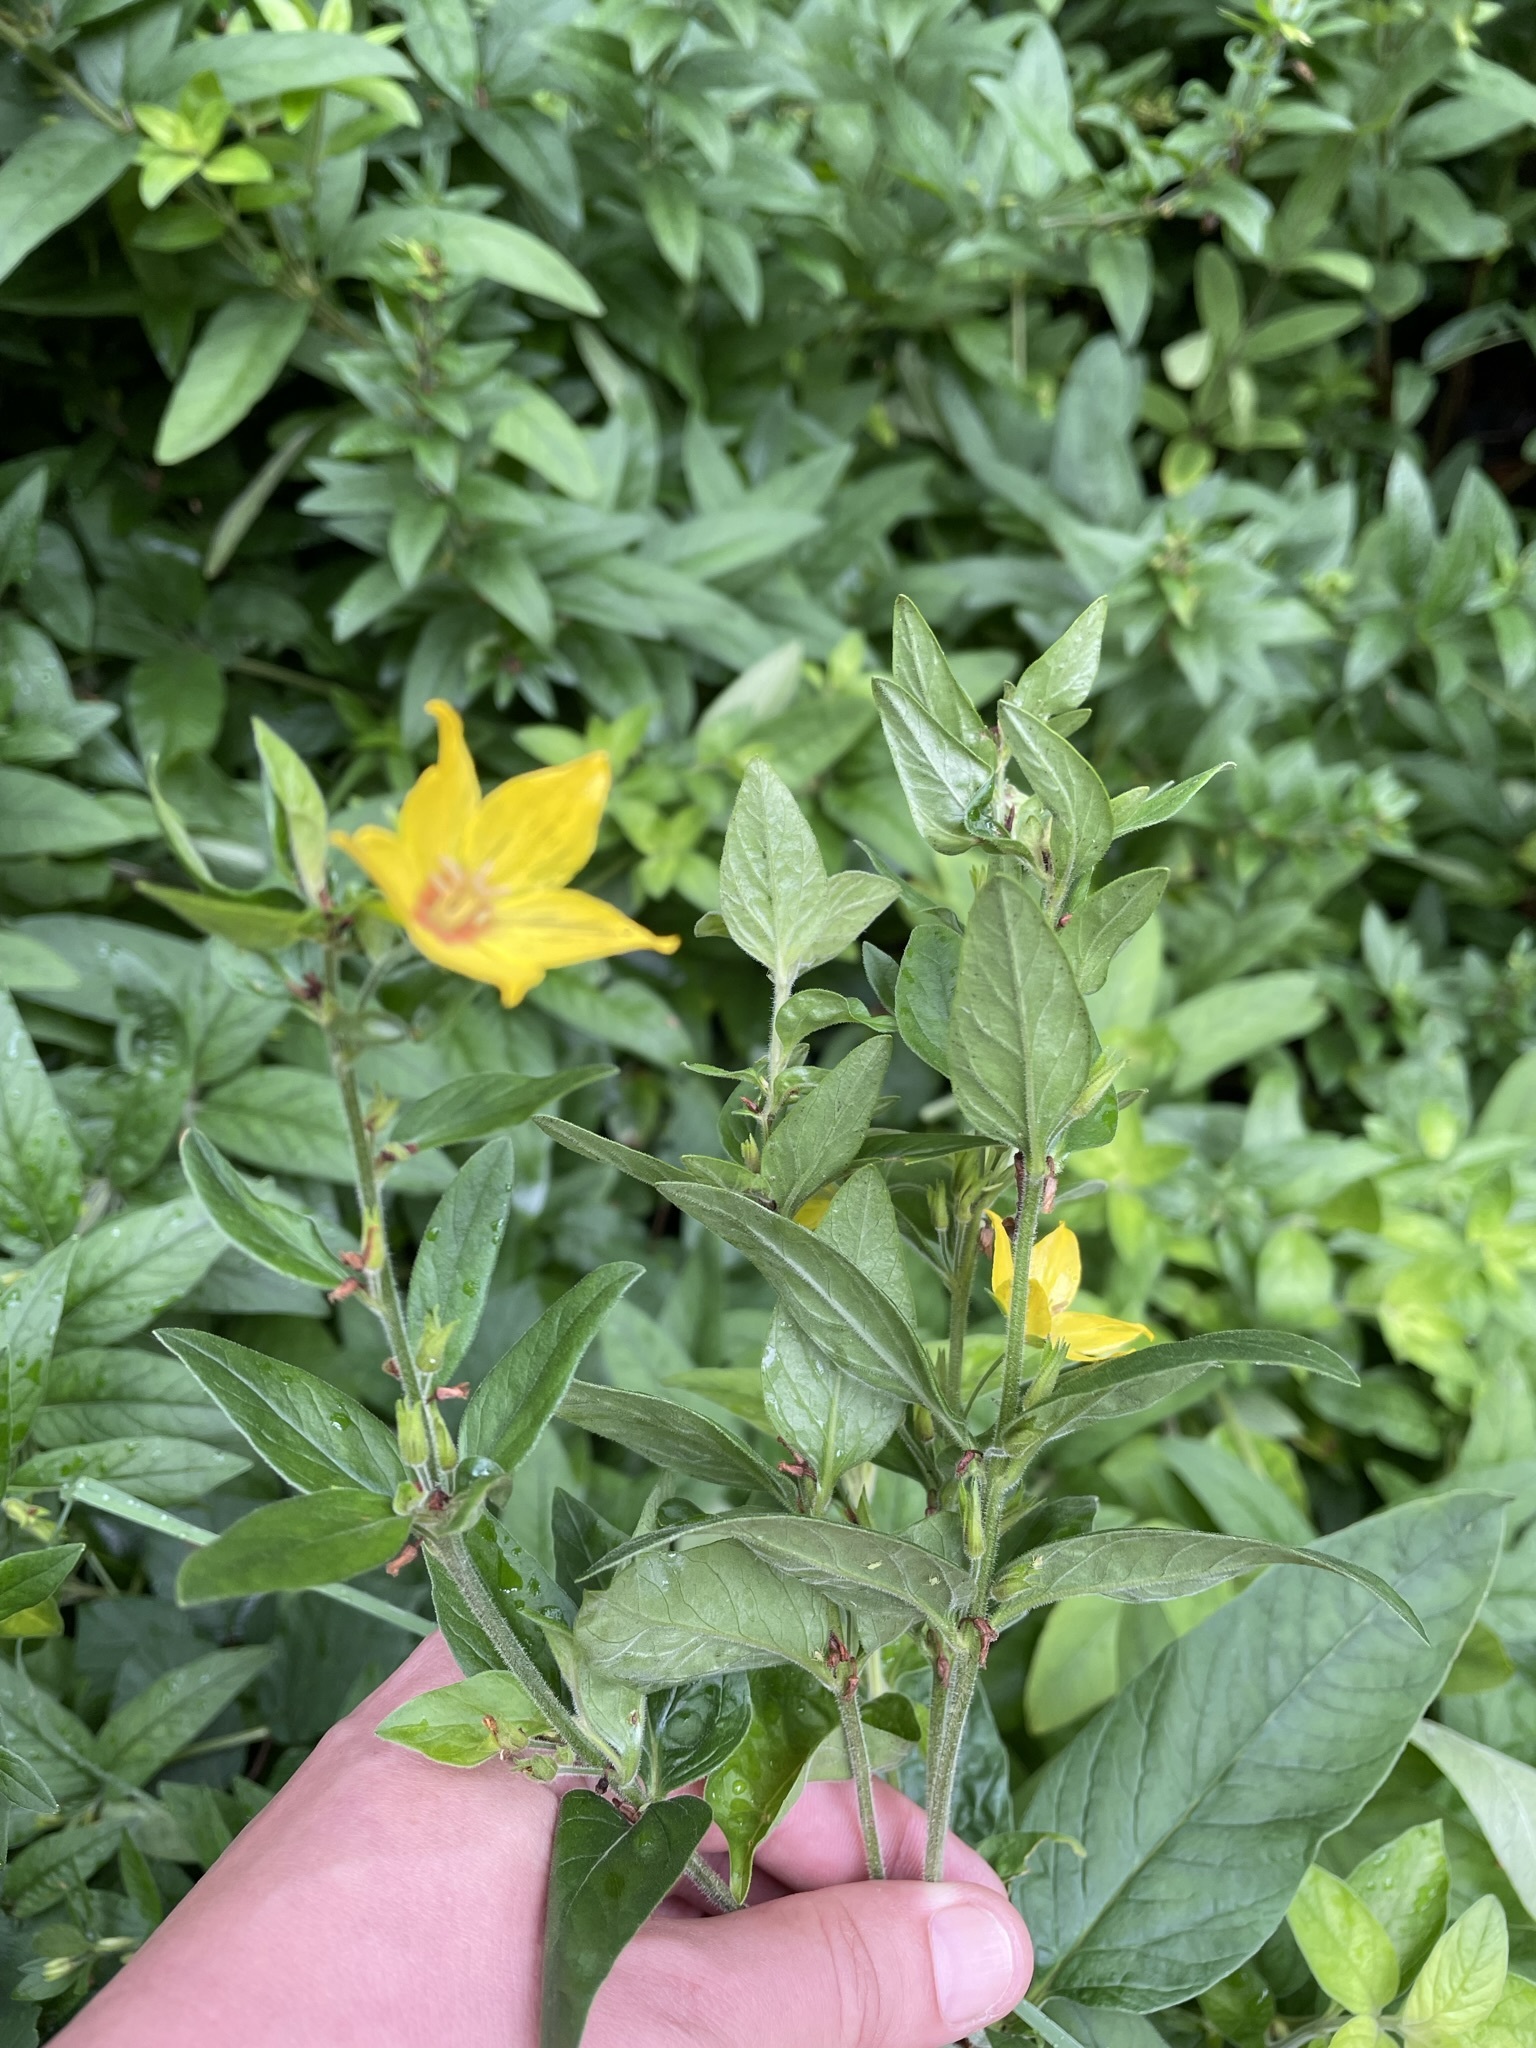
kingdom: Plantae
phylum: Tracheophyta
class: Magnoliopsida
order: Ericales
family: Primulaceae
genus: Lysimachia
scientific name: Lysimachia punctata
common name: Dotted loosestrife
